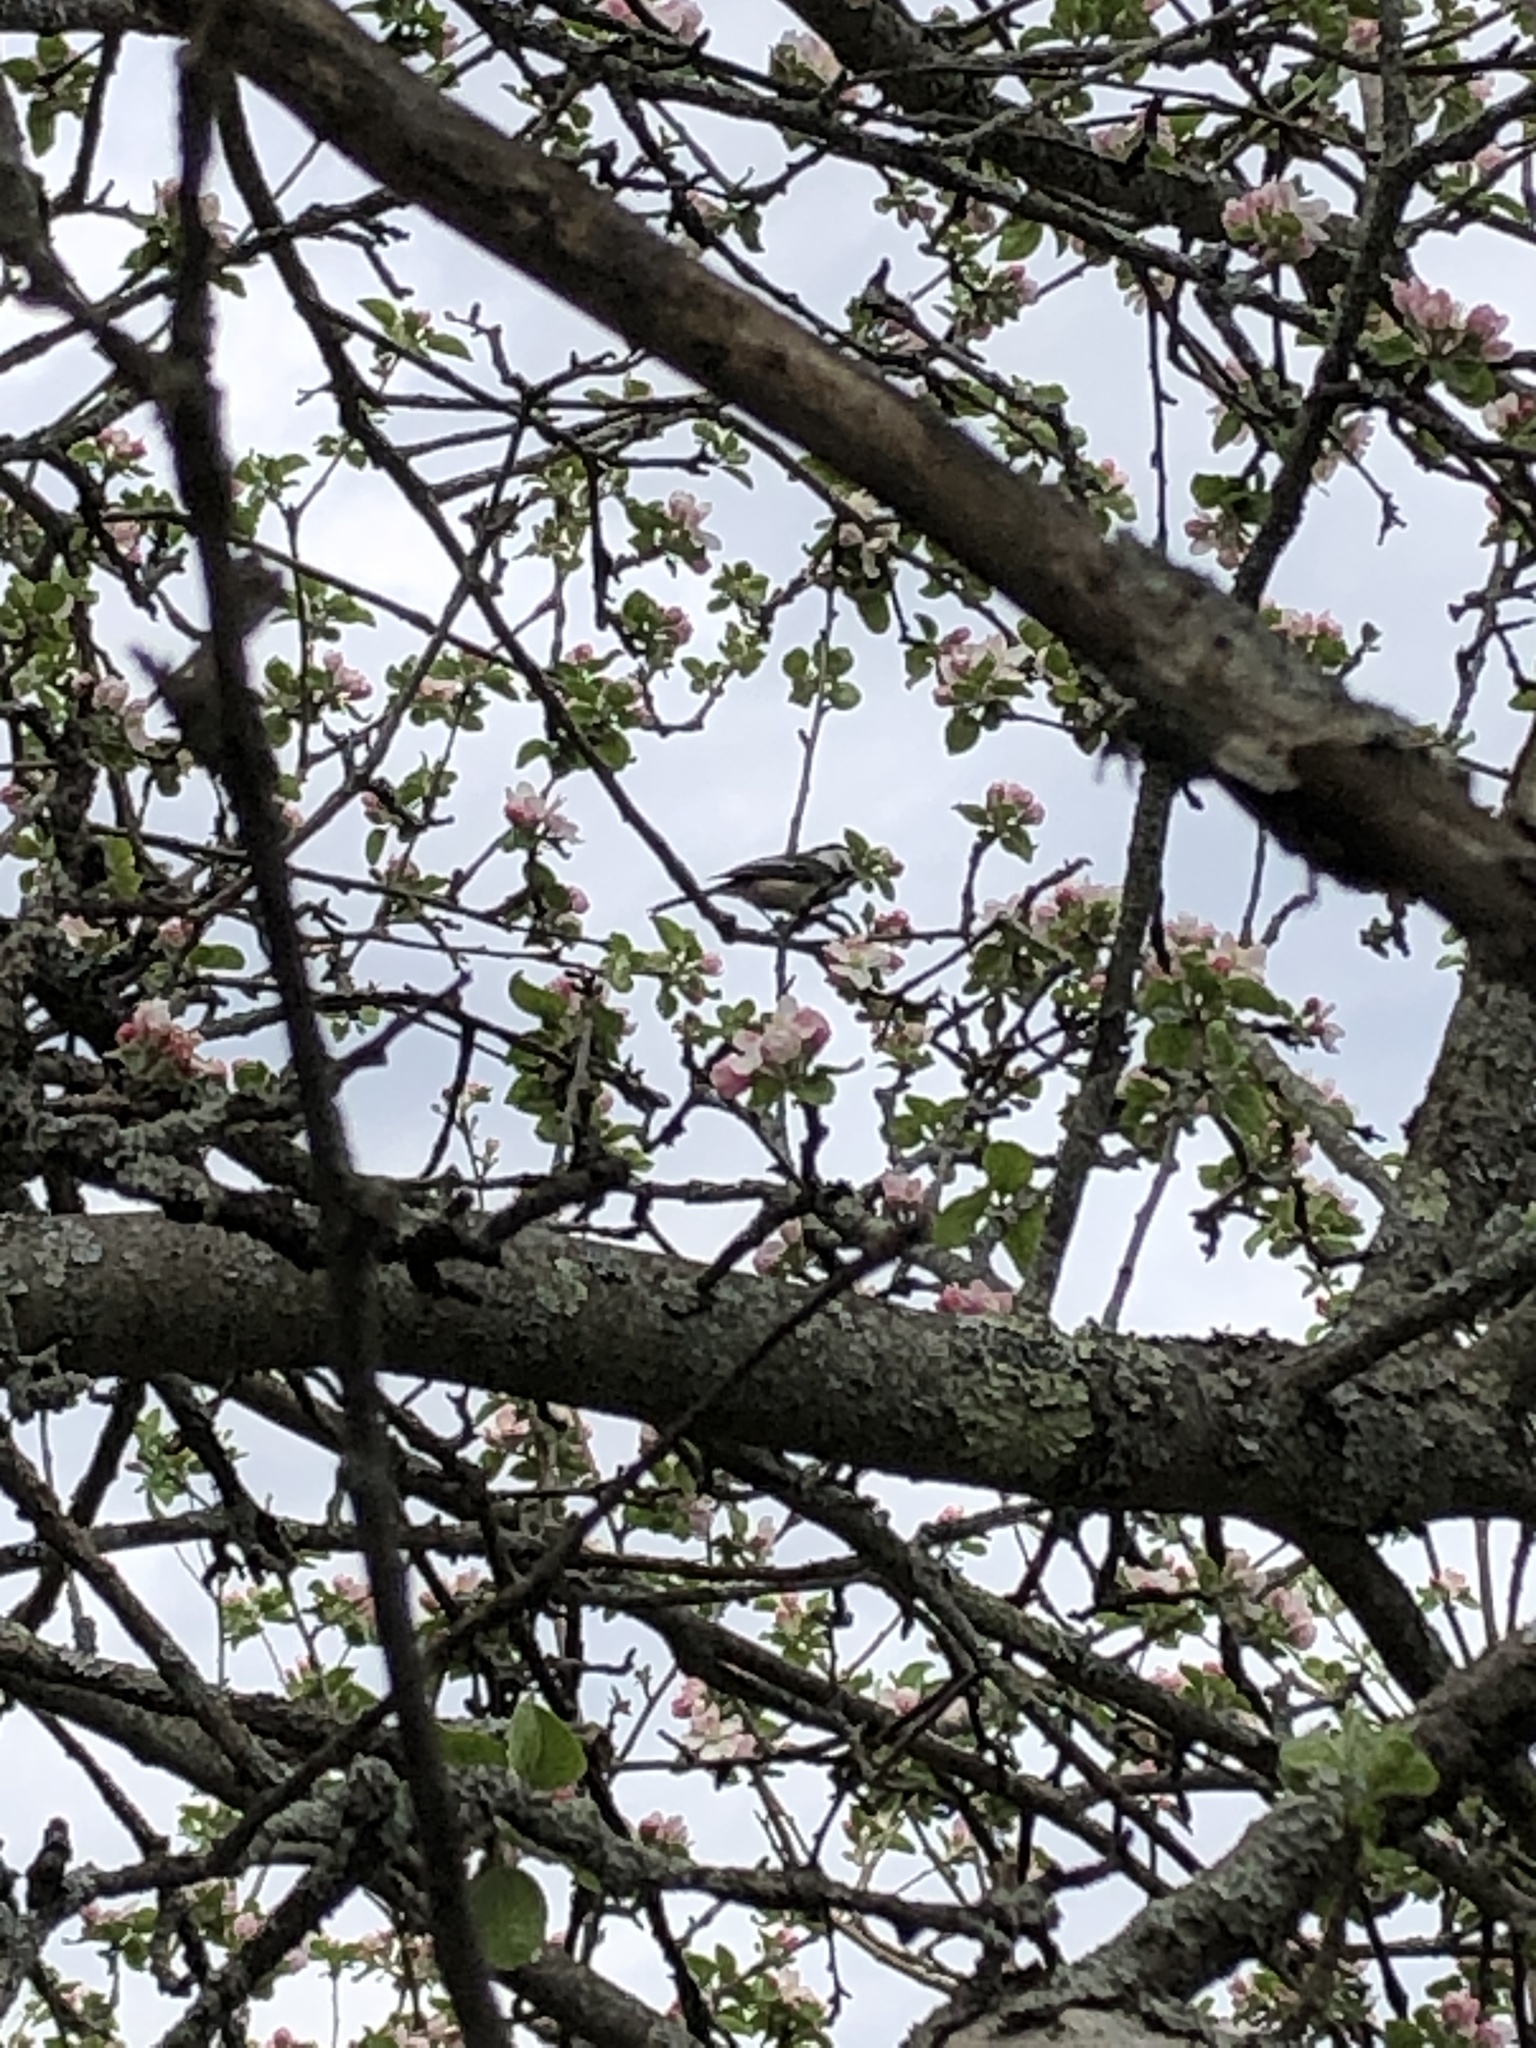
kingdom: Animalia
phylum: Chordata
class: Aves
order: Passeriformes
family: Paridae
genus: Poecile
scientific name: Poecile atricapillus
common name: Black-capped chickadee
